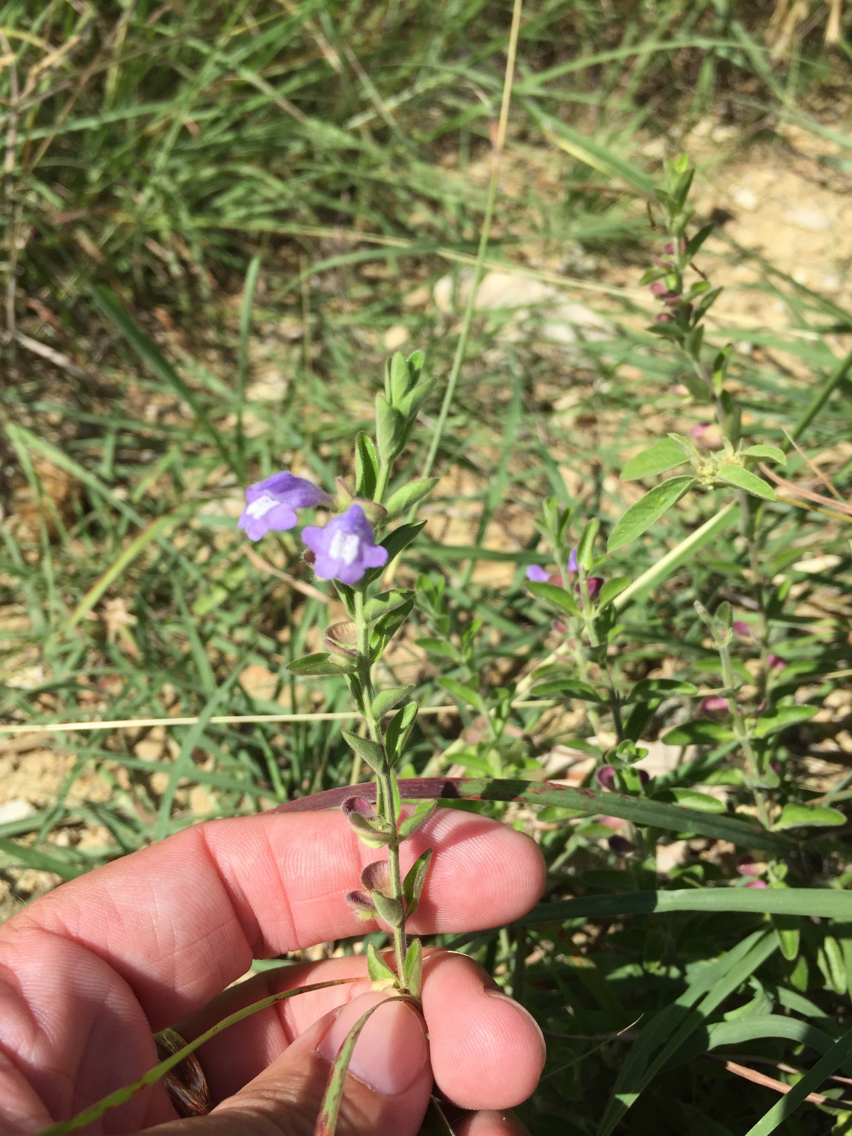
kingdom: Plantae
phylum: Tracheophyta
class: Magnoliopsida
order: Lamiales
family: Lamiaceae
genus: Scutellaria
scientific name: Scutellaria drummondii
